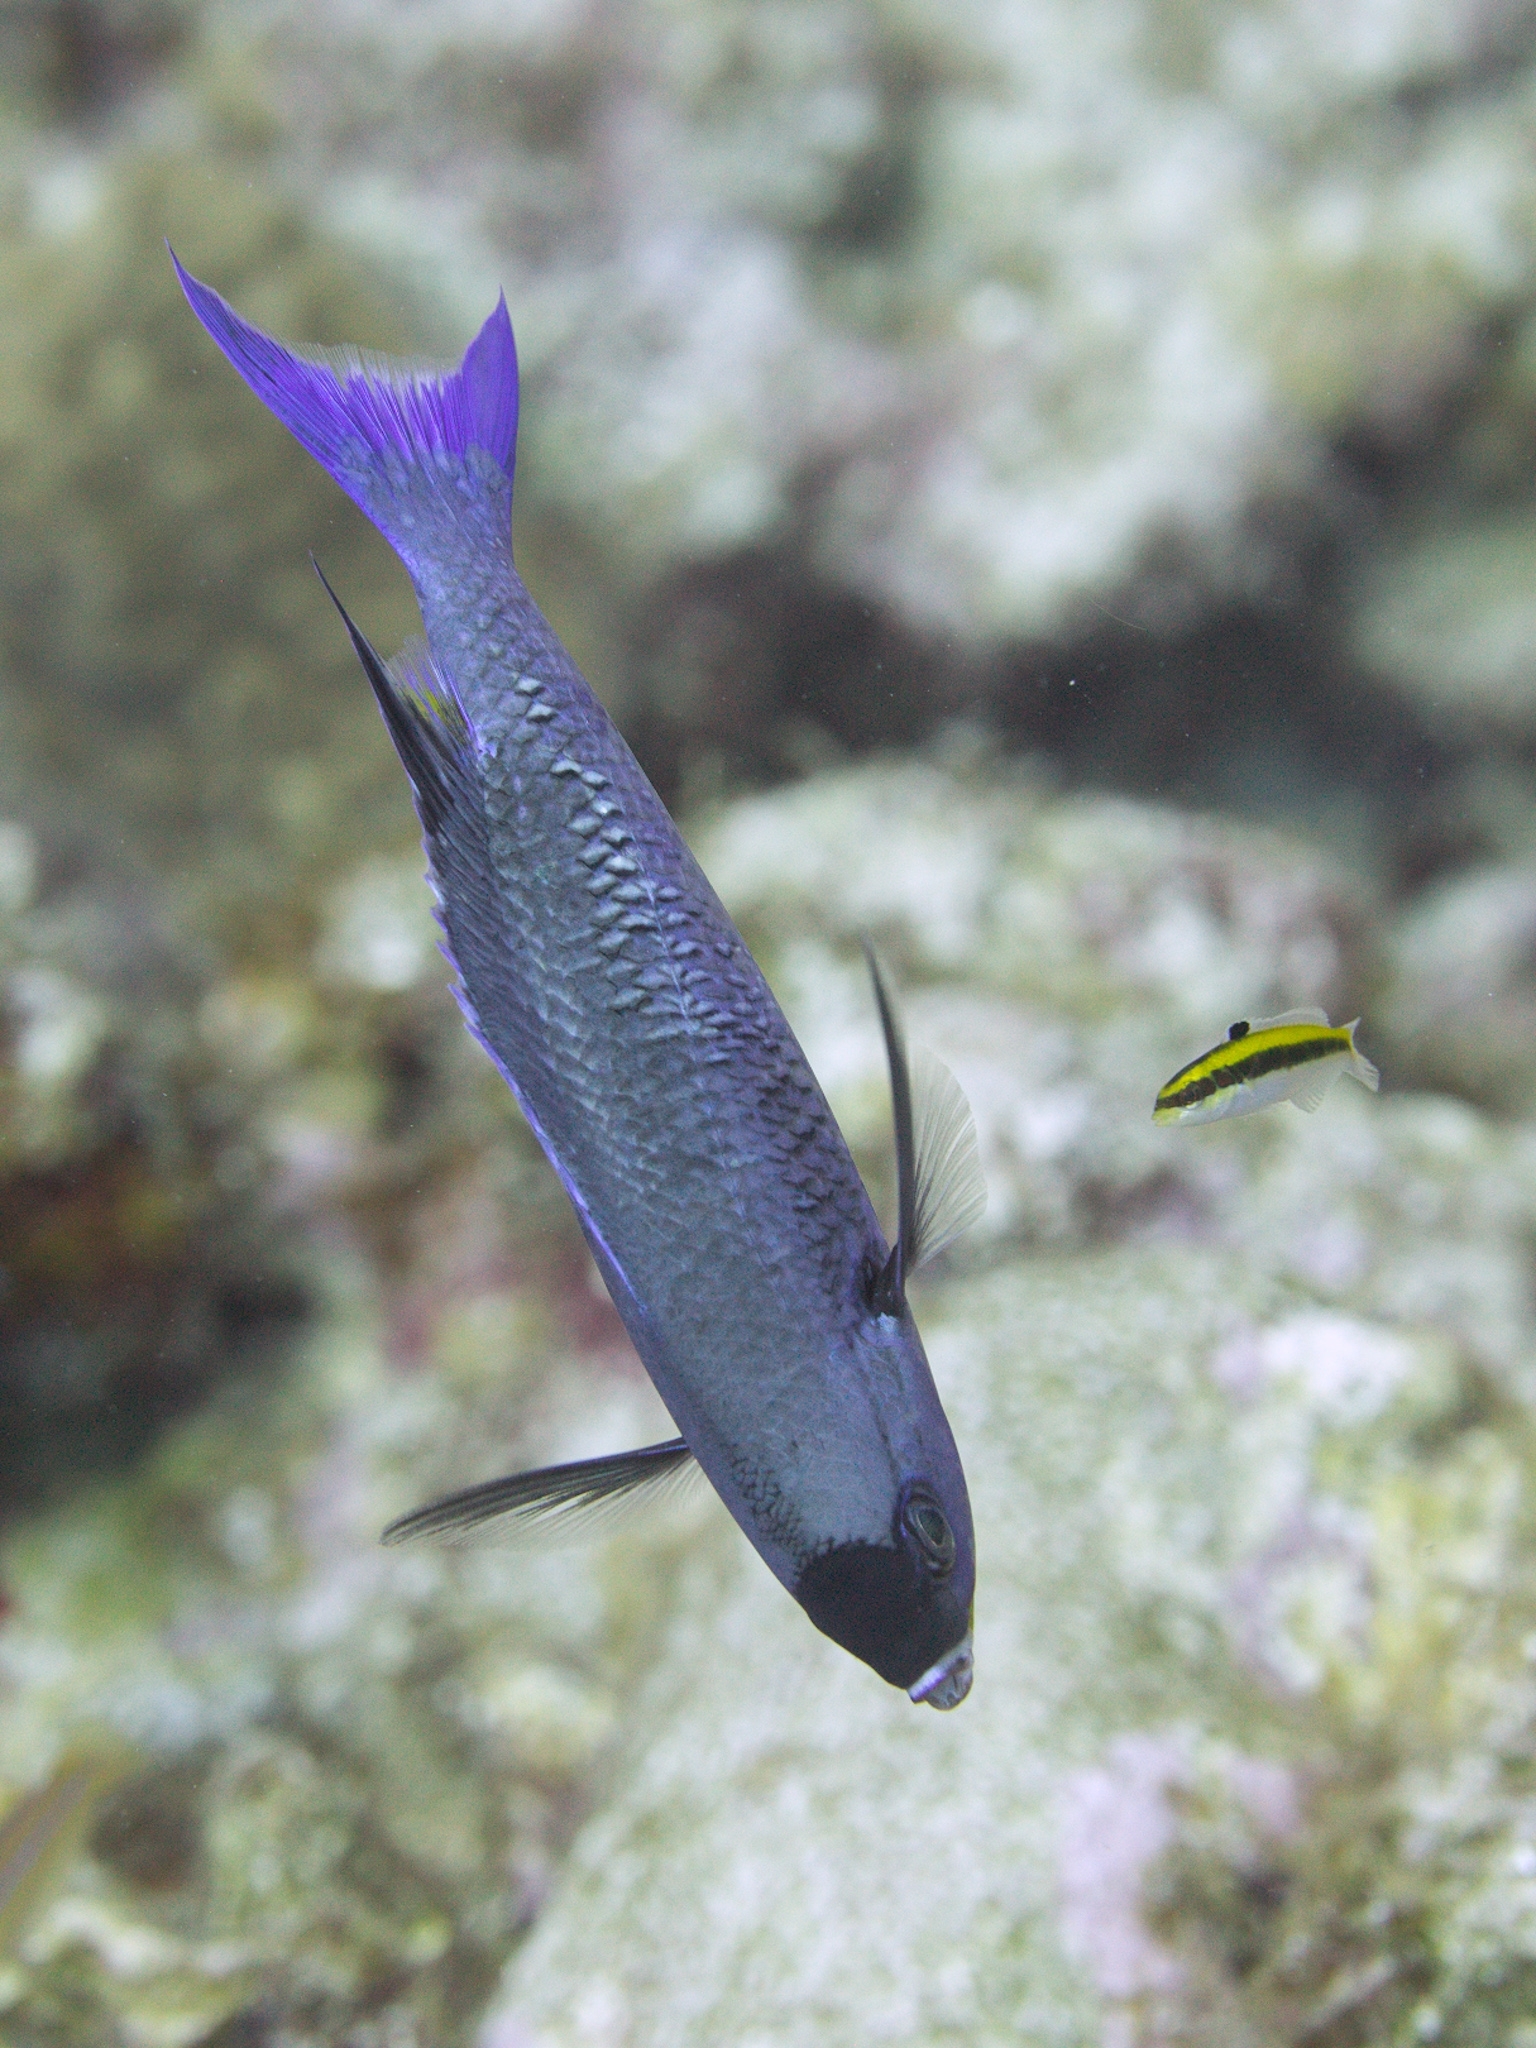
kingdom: Animalia
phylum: Chordata
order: Perciformes
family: Labridae
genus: Bodianus
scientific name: Bodianus
